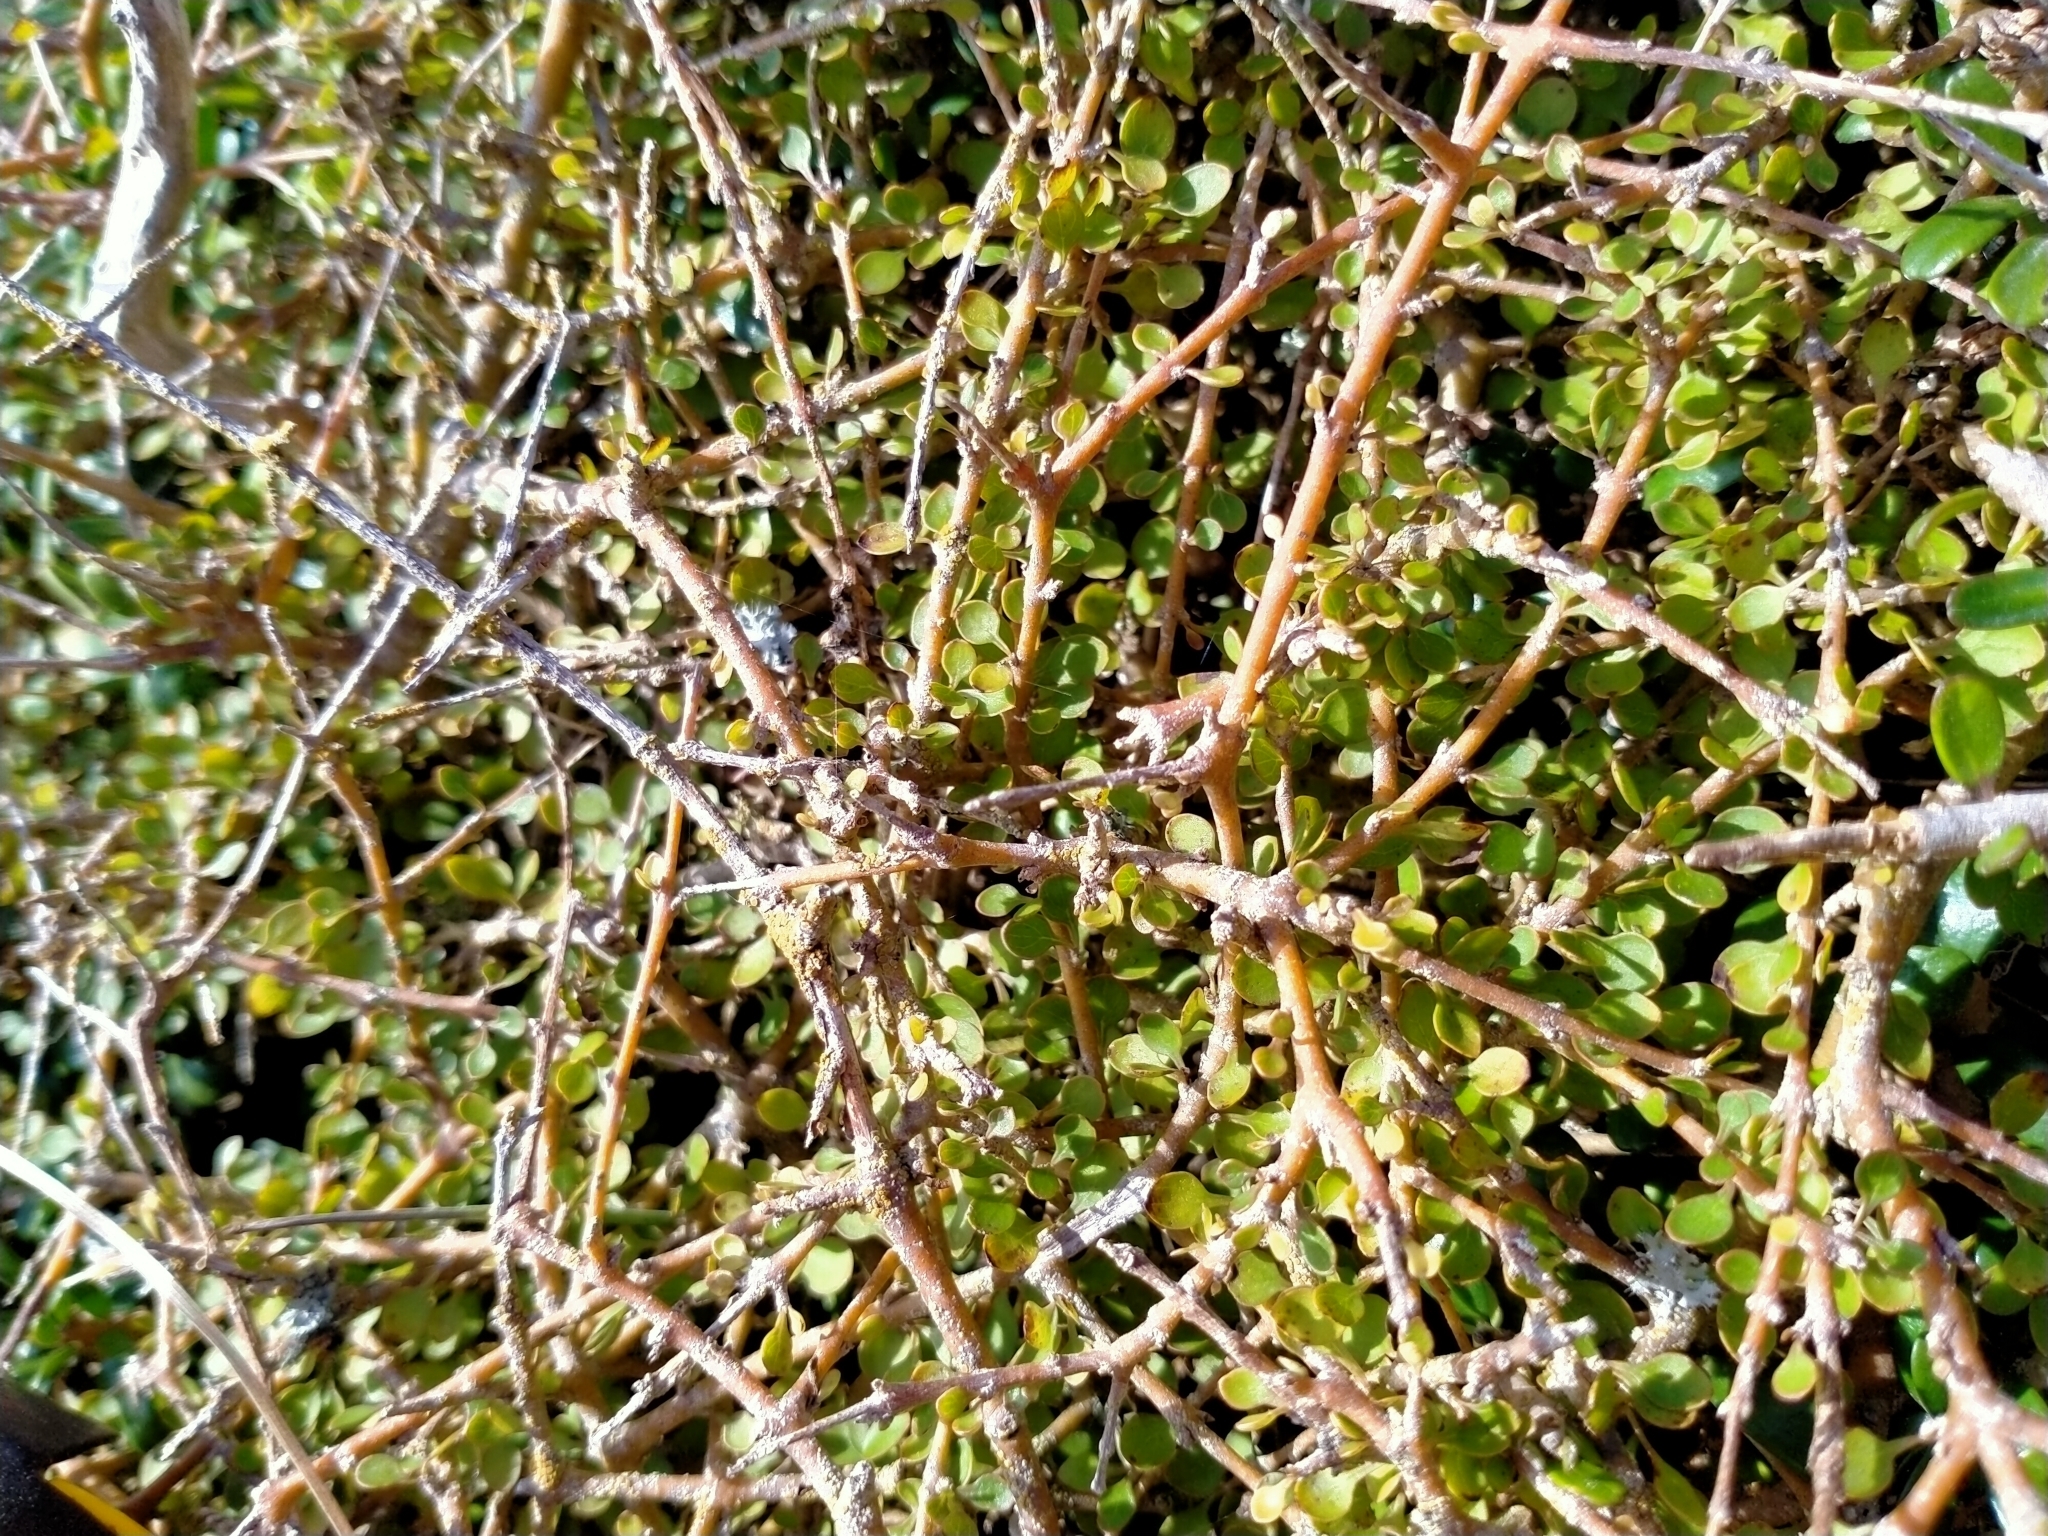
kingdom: Plantae
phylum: Tracheophyta
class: Magnoliopsida
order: Gentianales
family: Rubiaceae
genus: Coprosma
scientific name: Coprosma virescens
